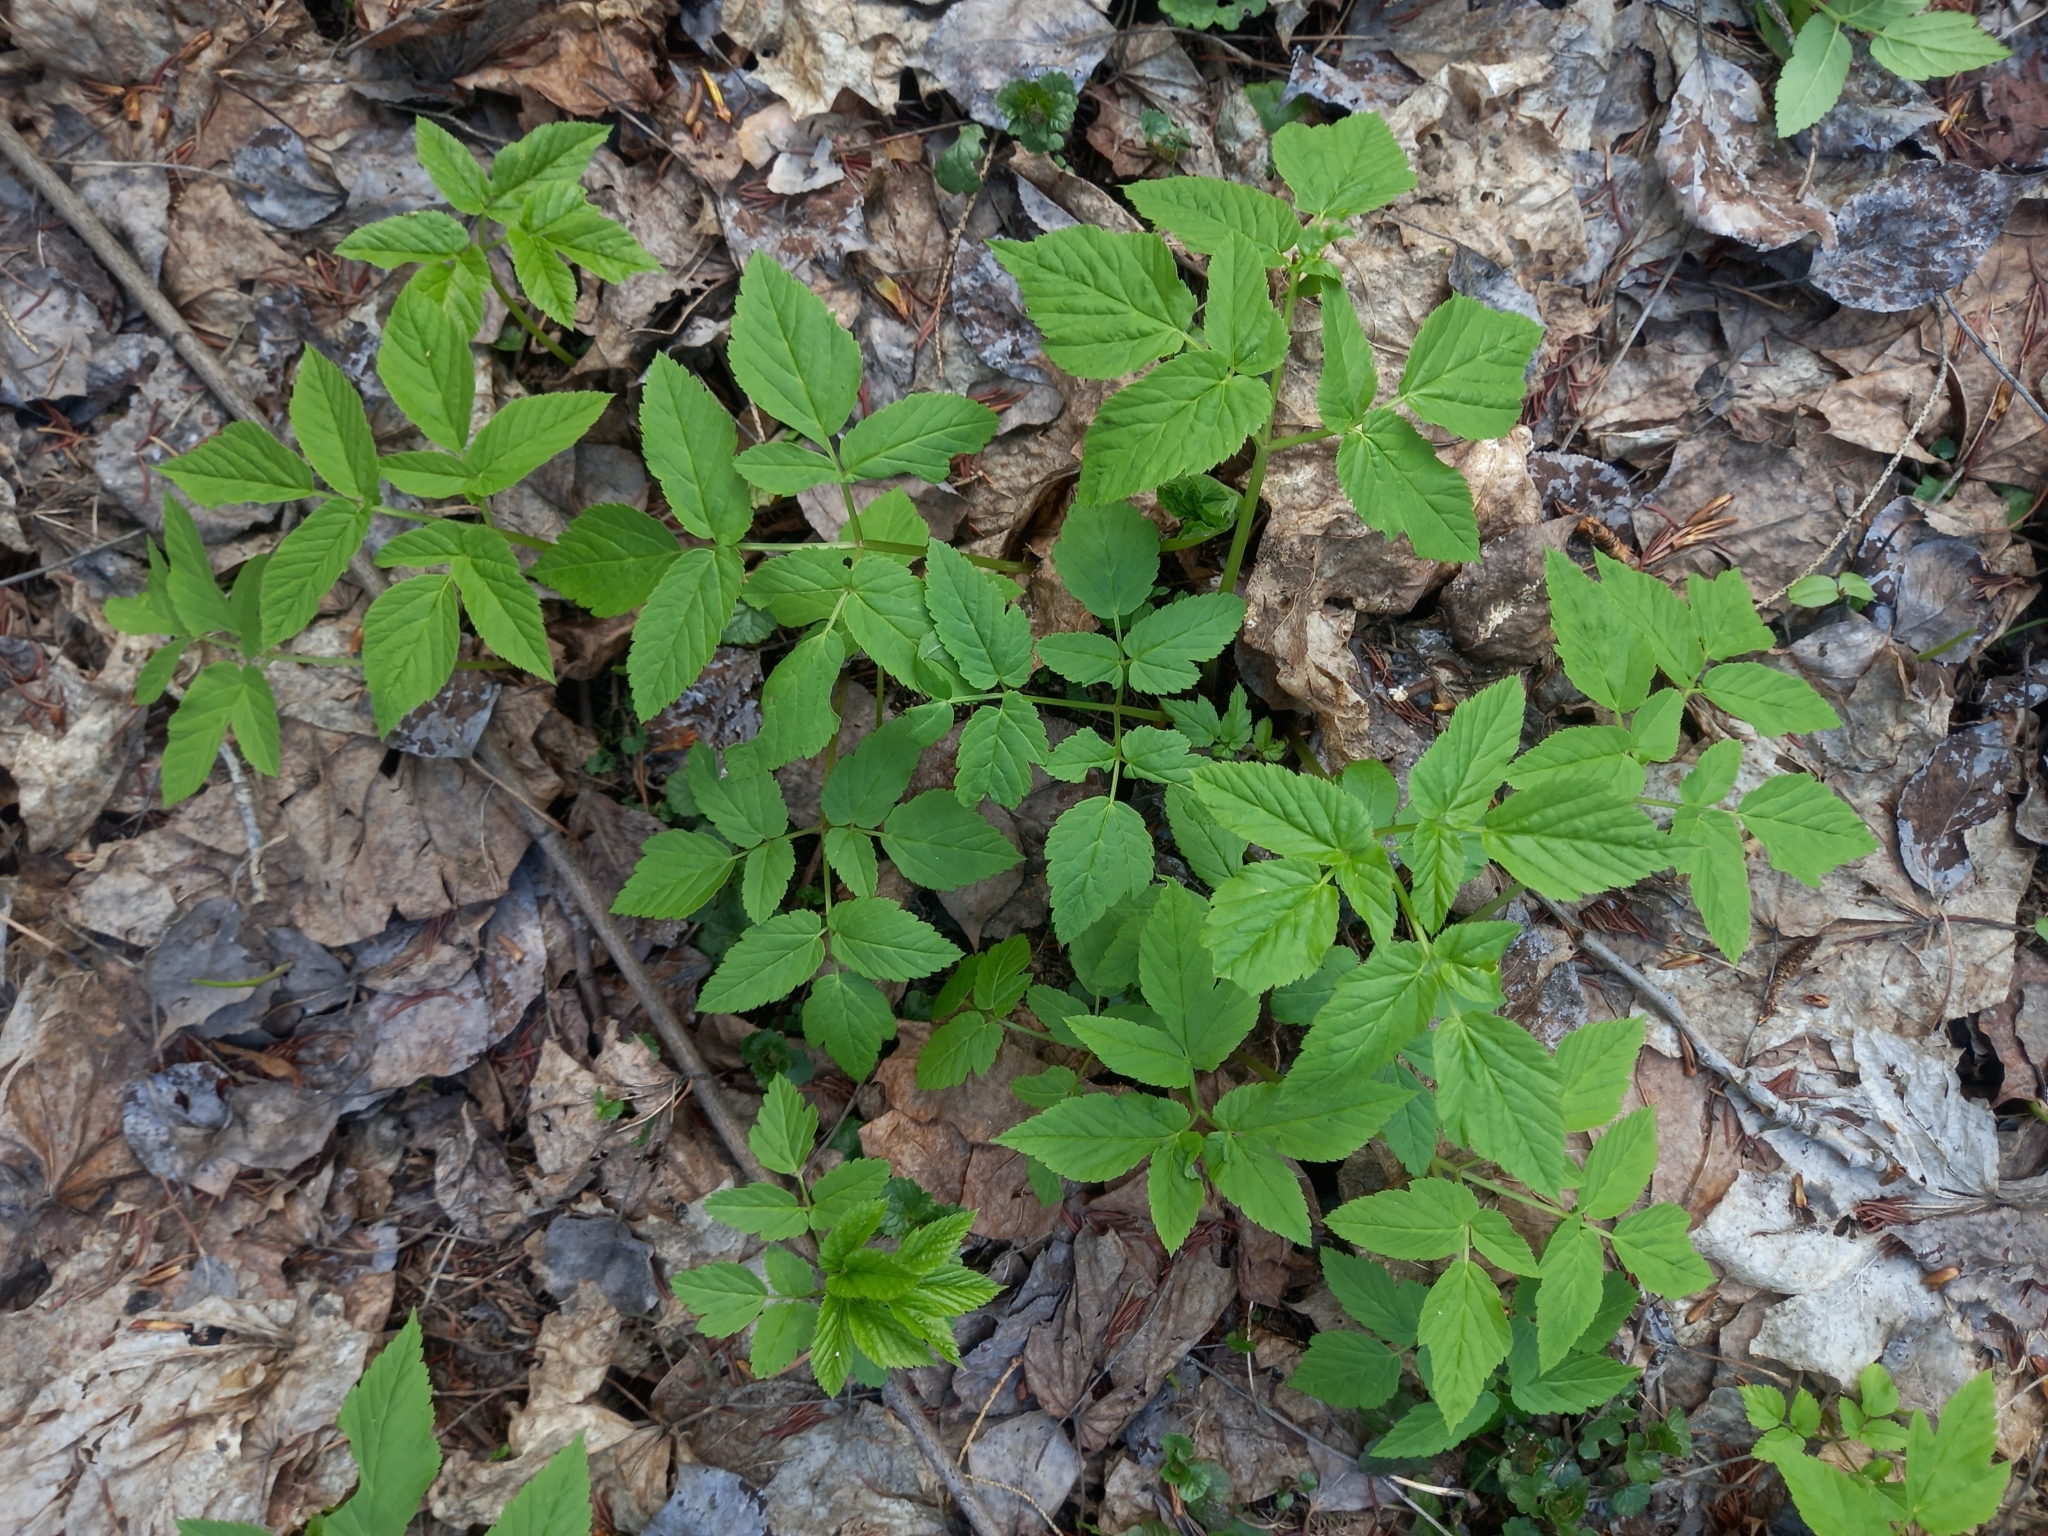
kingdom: Plantae
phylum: Tracheophyta
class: Magnoliopsida
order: Apiales
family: Apiaceae
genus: Aegopodium
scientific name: Aegopodium podagraria
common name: Ground-elder
